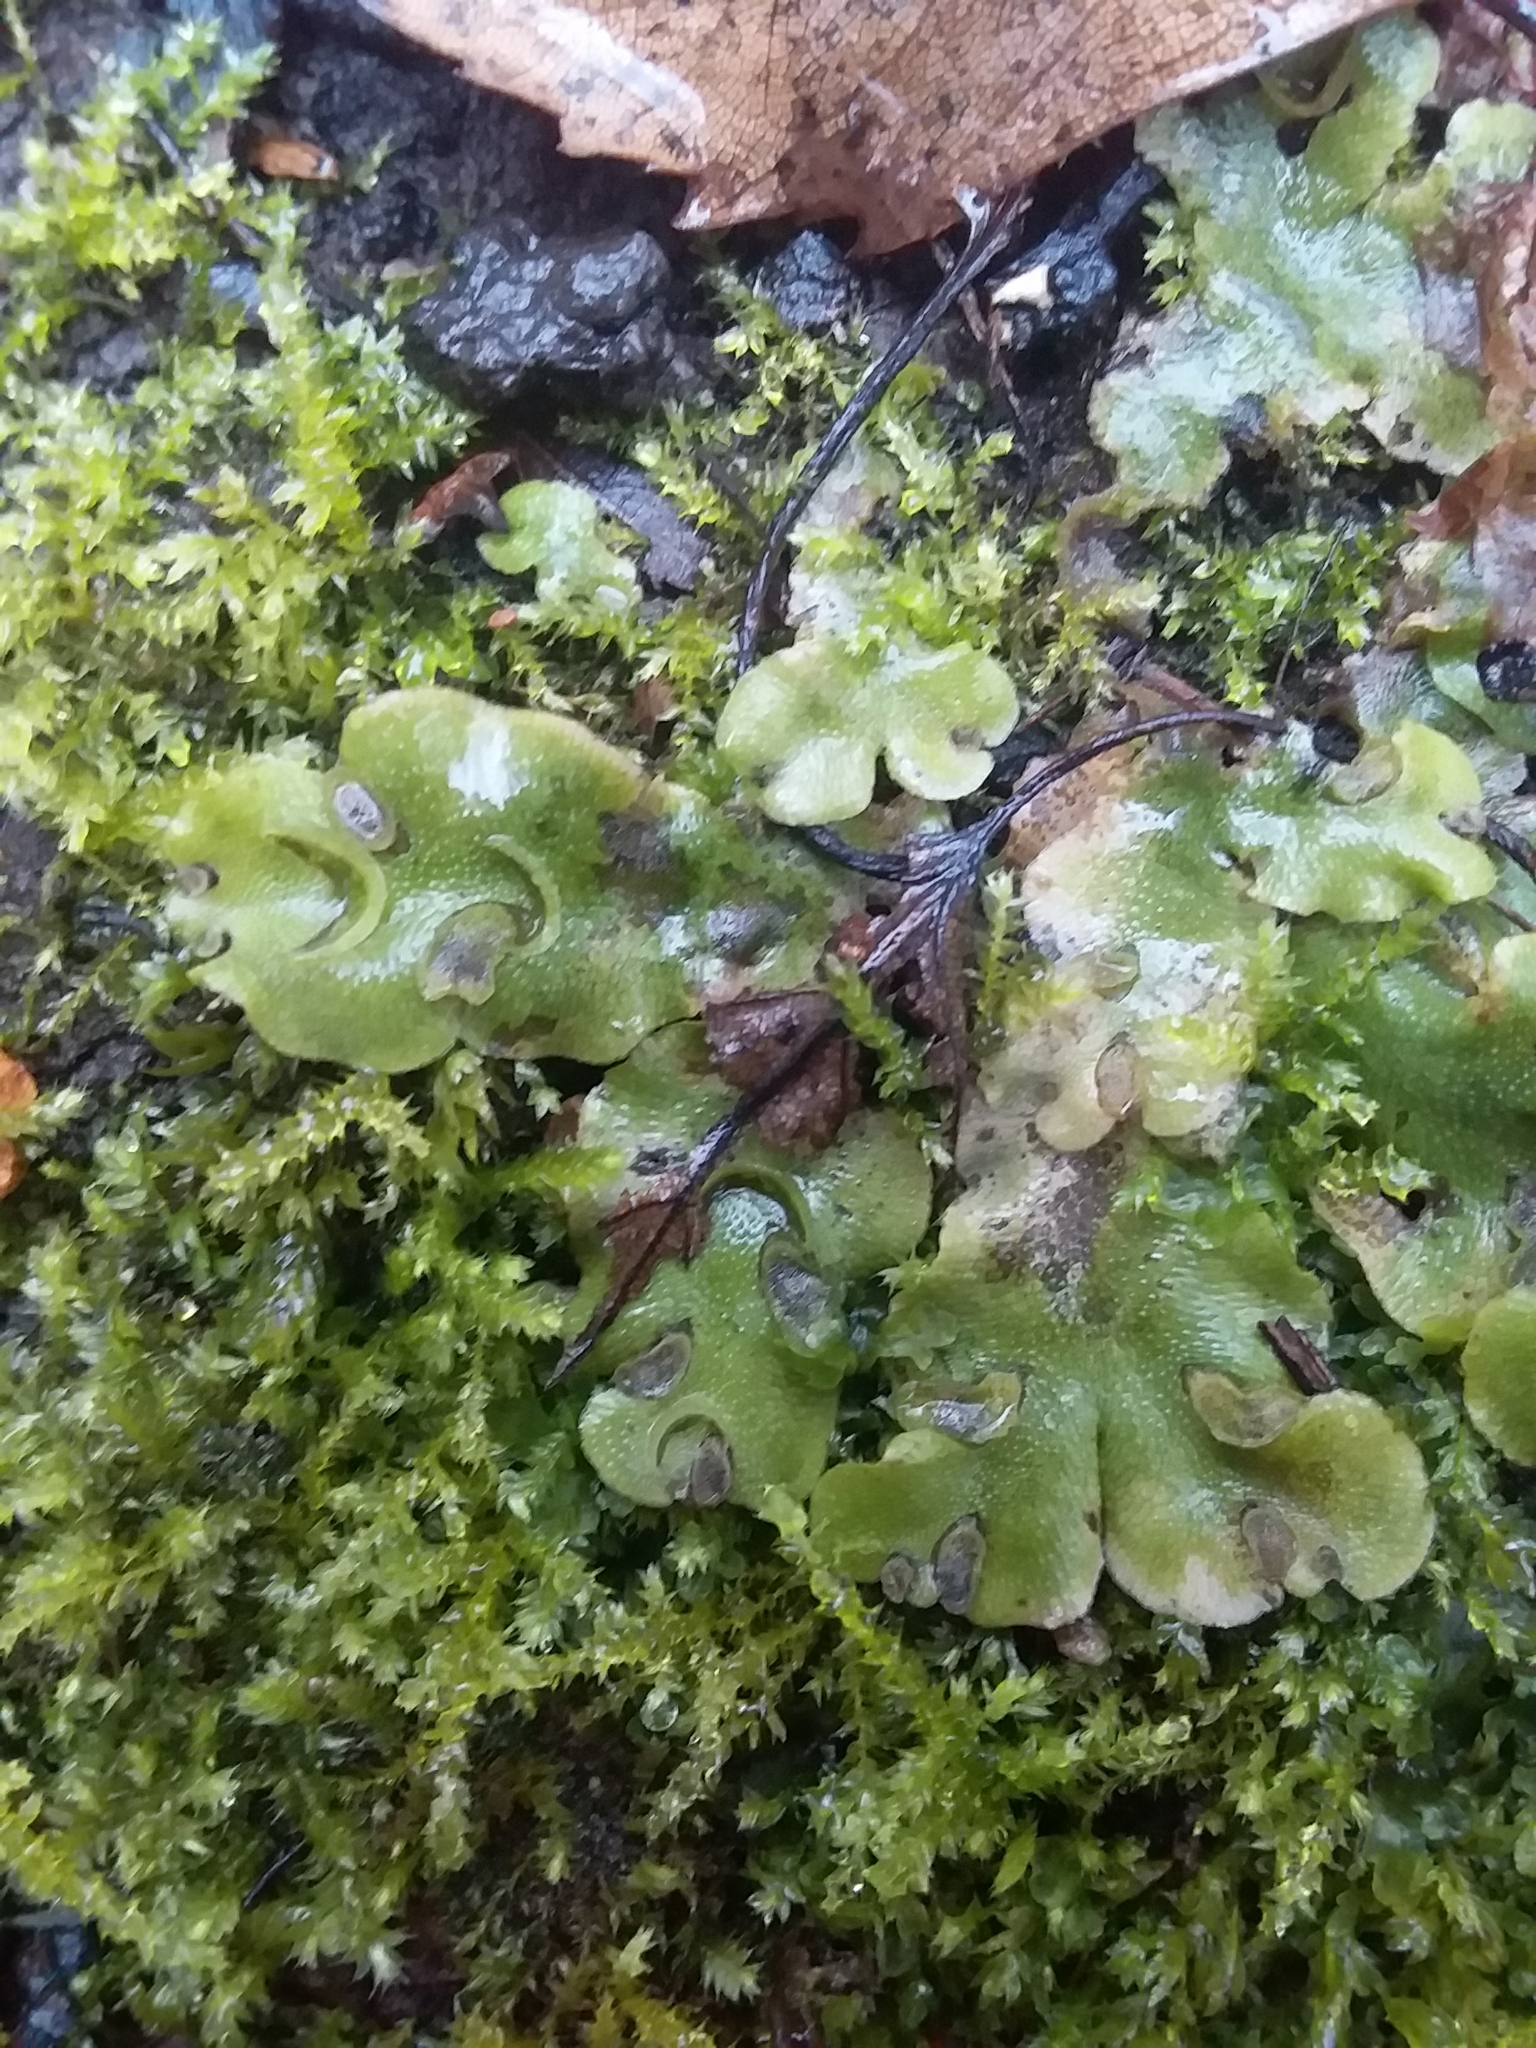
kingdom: Plantae
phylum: Marchantiophyta
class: Marchantiopsida
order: Lunulariales
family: Lunulariaceae
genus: Lunularia
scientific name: Lunularia cruciata
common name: Crescent-cup liverwort
